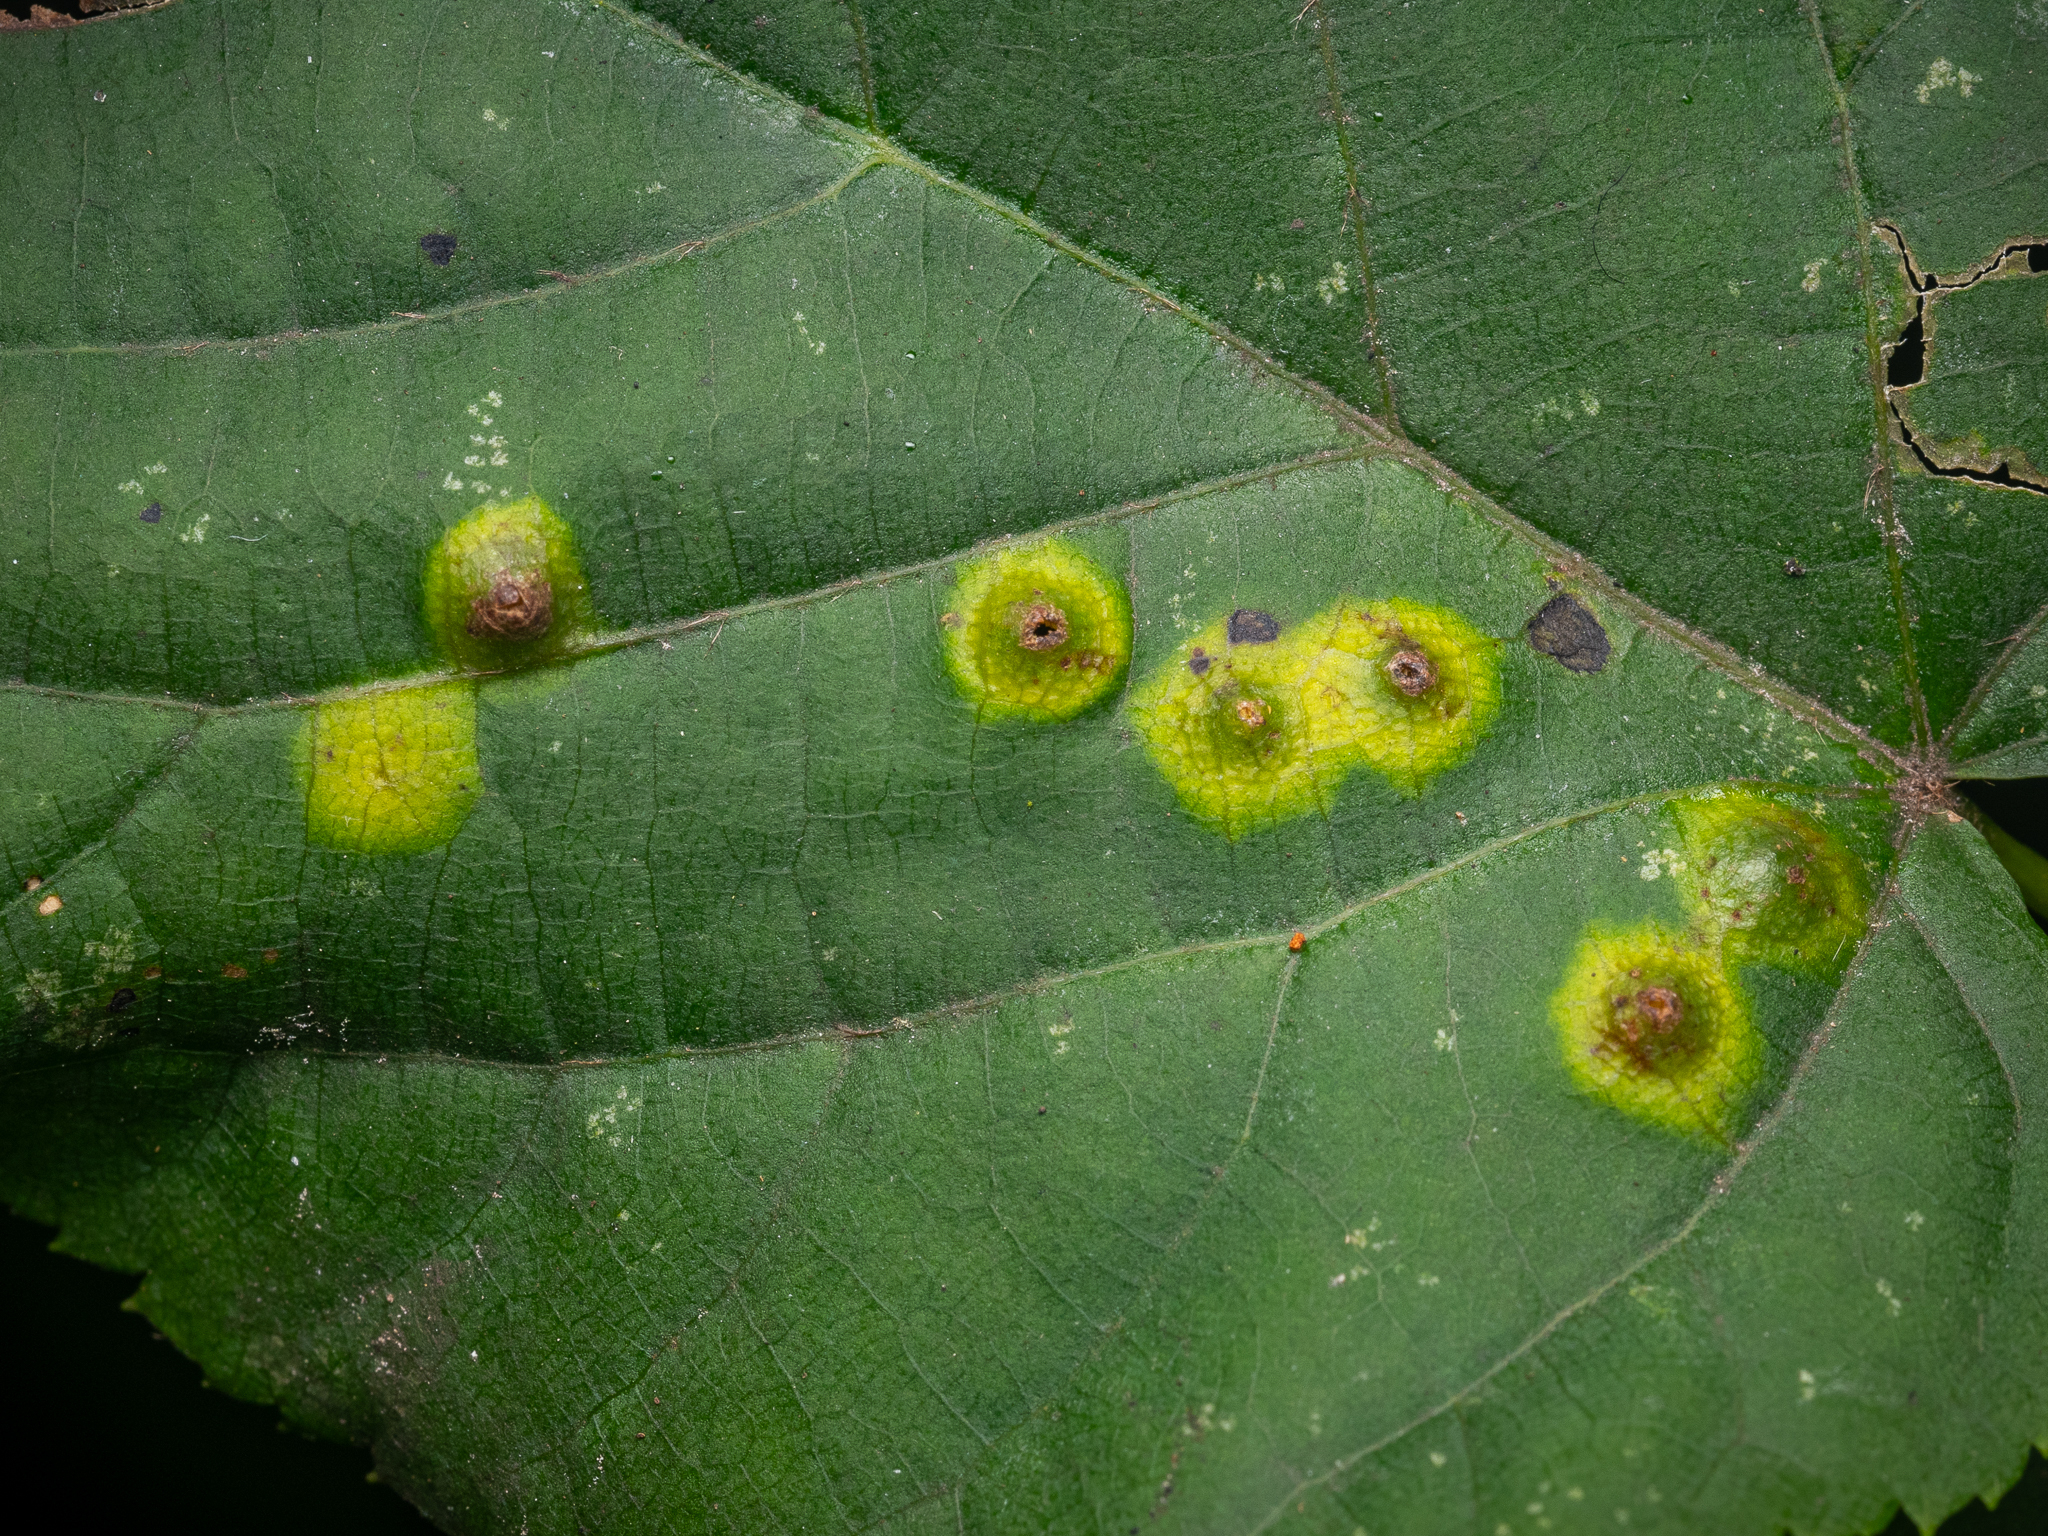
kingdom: Animalia
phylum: Arthropoda
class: Insecta
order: Diptera
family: Cecidomyiidae
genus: Didymomyia
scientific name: Didymomyia tiliacea
